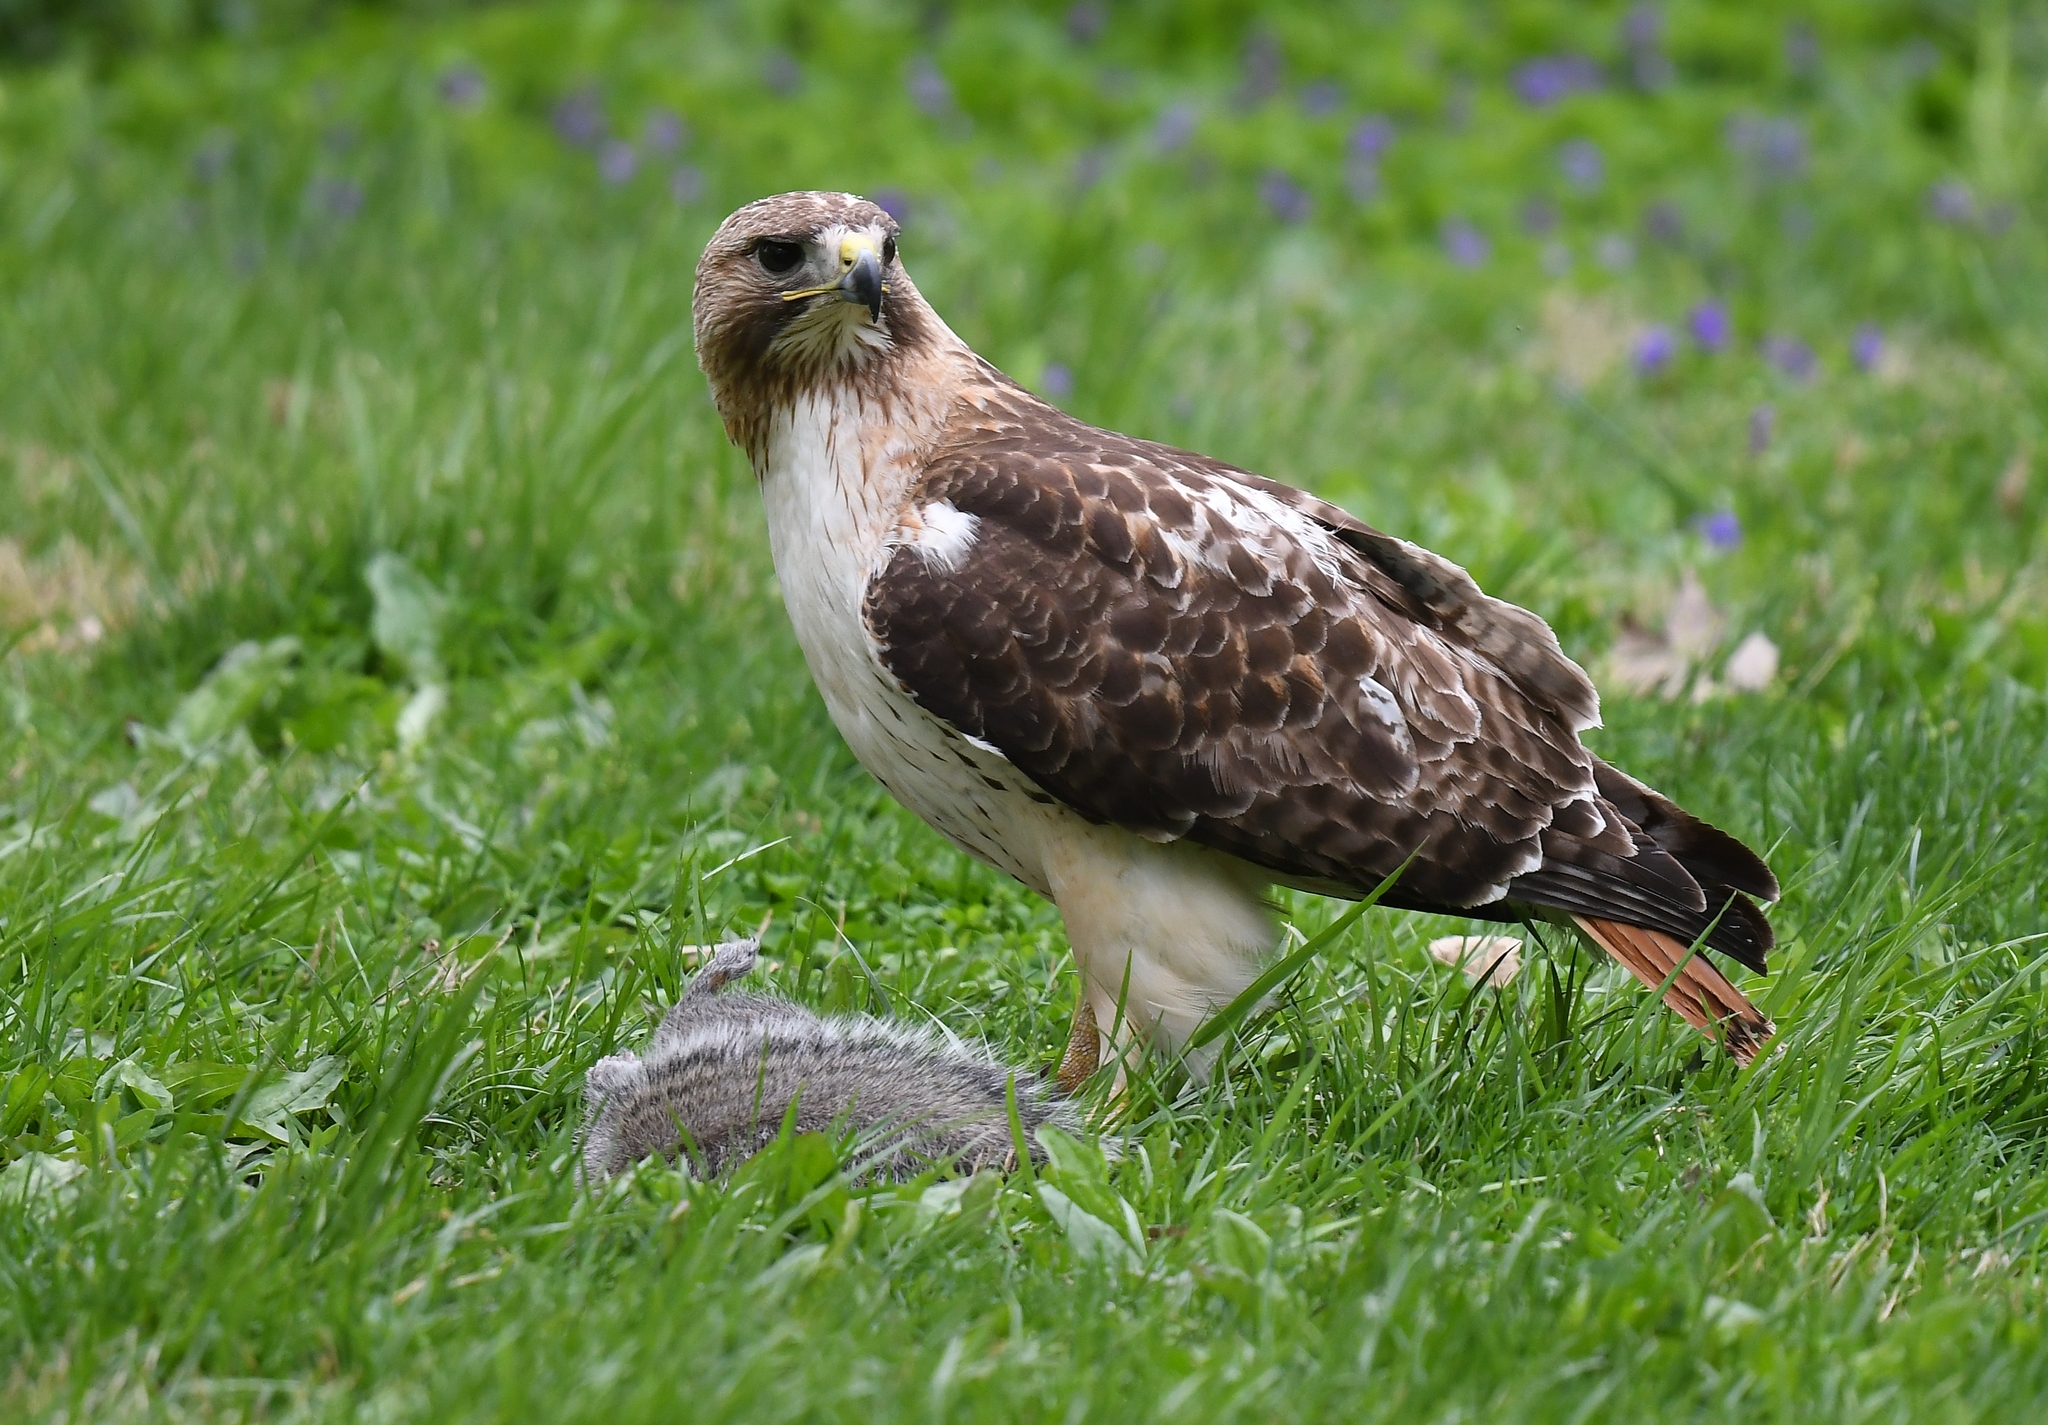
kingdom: Animalia
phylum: Chordata
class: Aves
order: Accipitriformes
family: Accipitridae
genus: Buteo
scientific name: Buteo jamaicensis
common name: Red-tailed hawk
